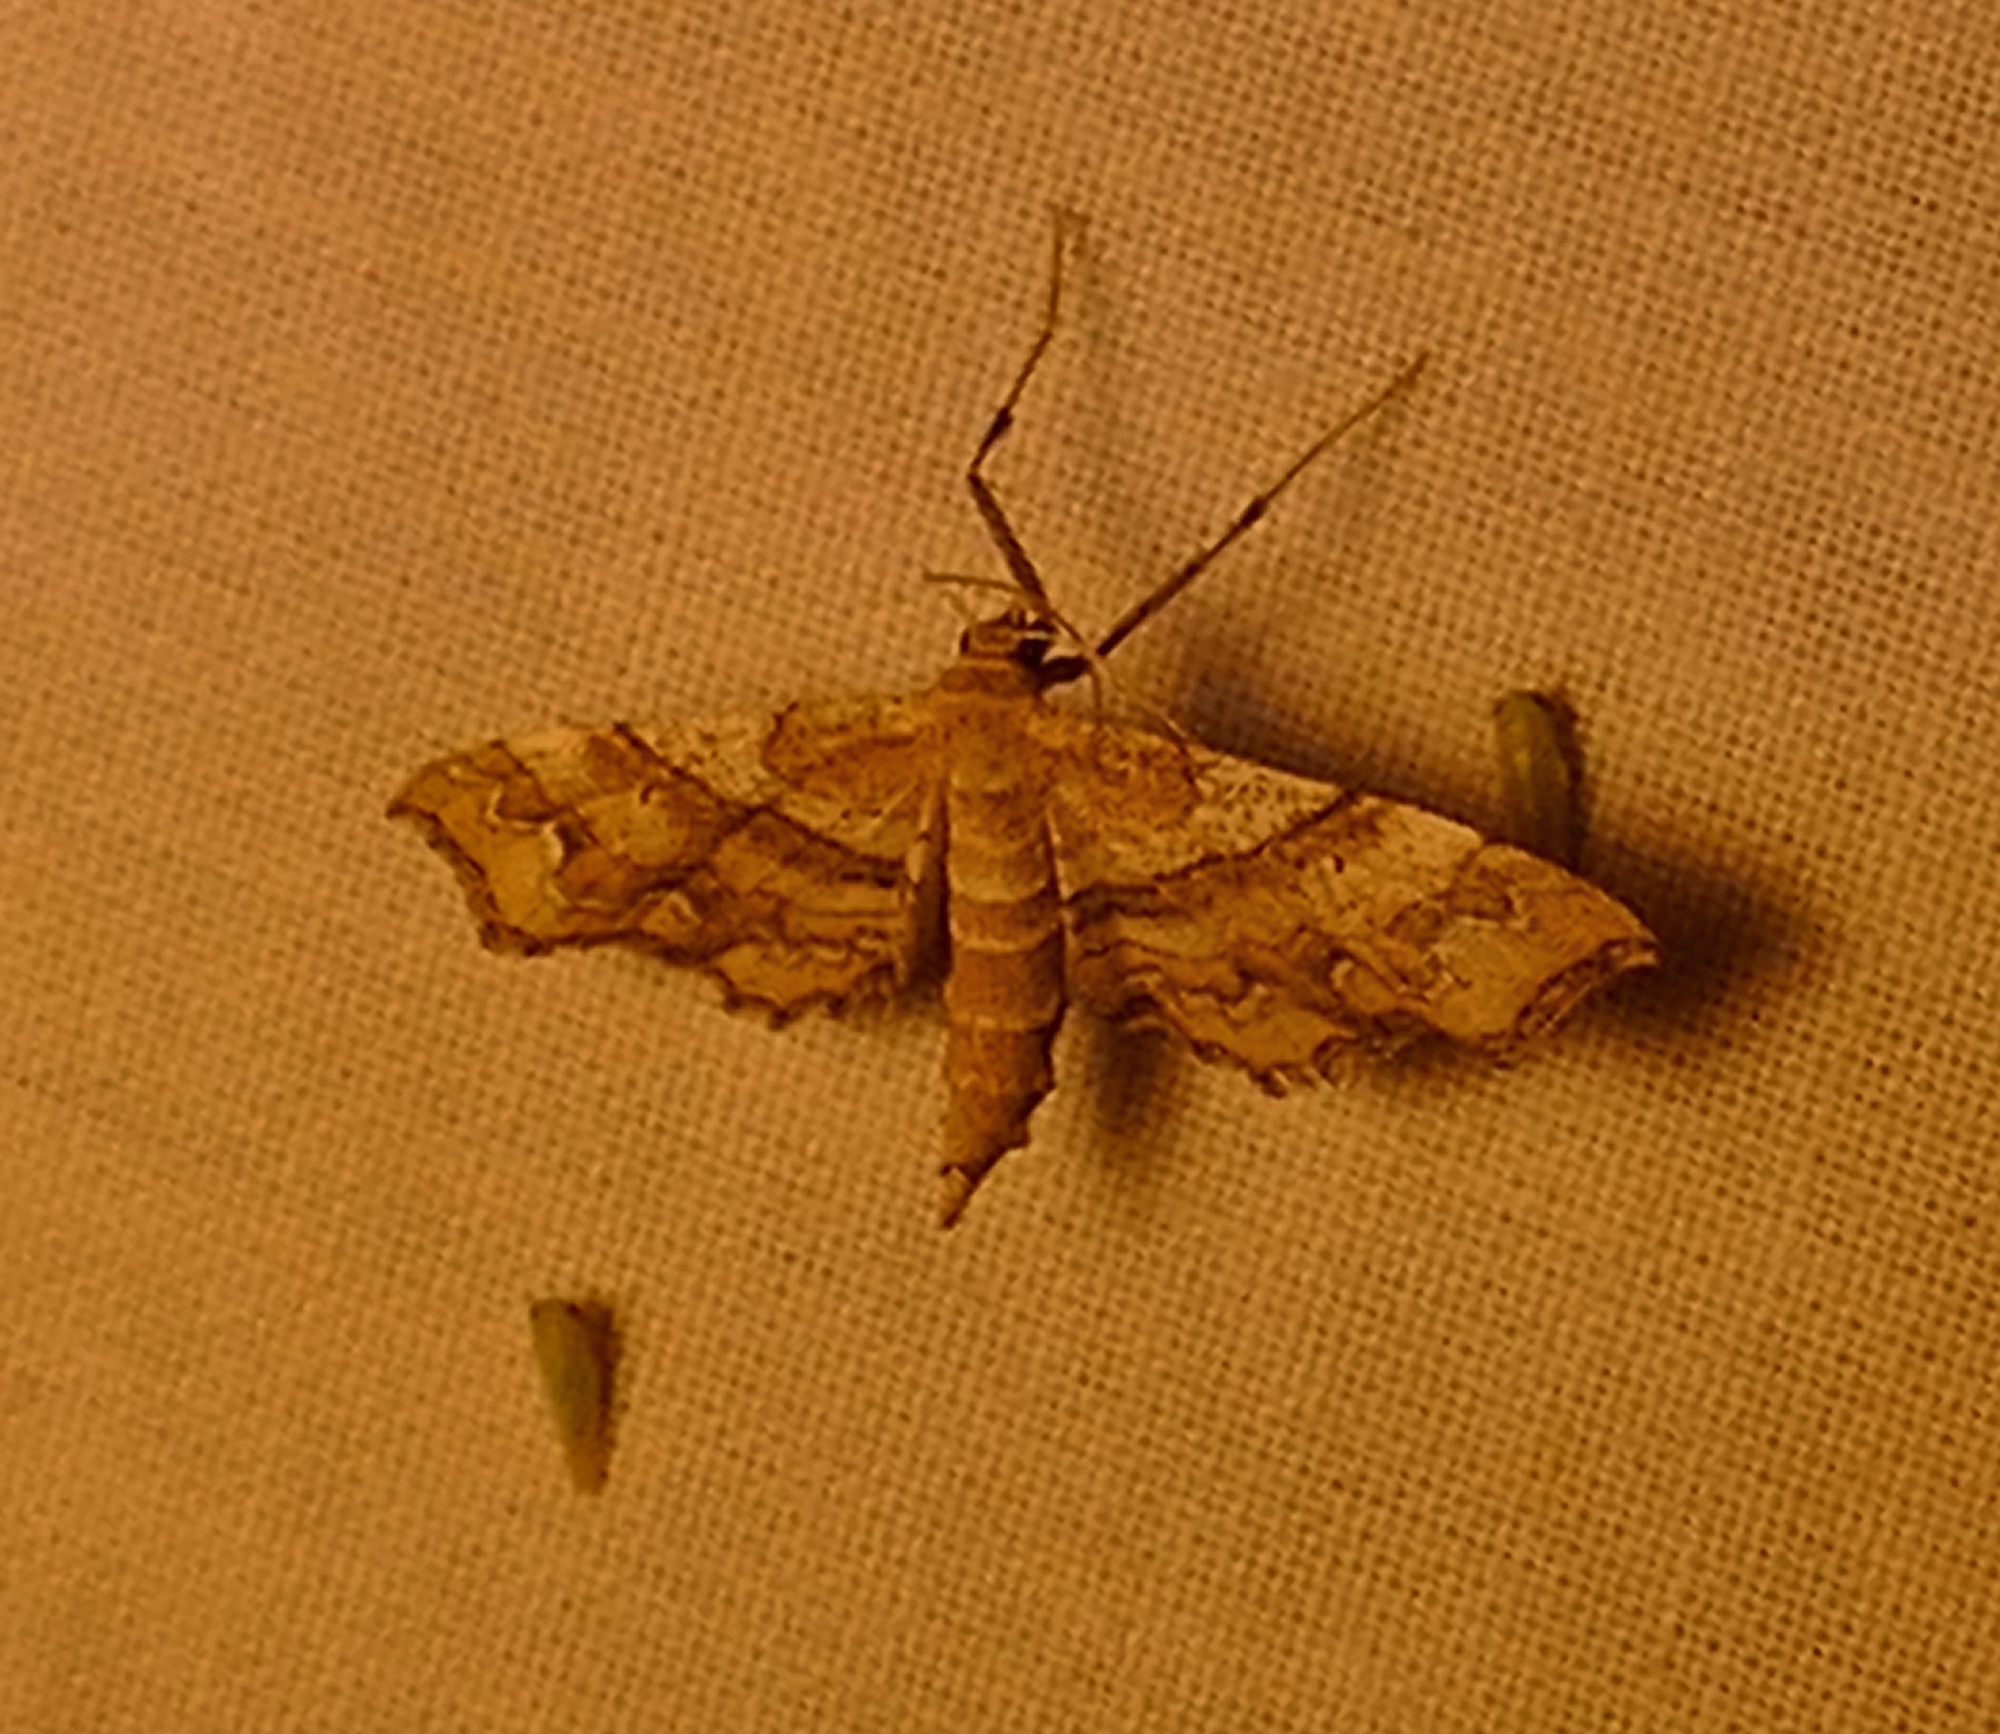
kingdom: Animalia
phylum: Arthropoda
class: Insecta
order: Lepidoptera
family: Geometridae
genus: Odontoptila
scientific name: Odontoptila obrimo
